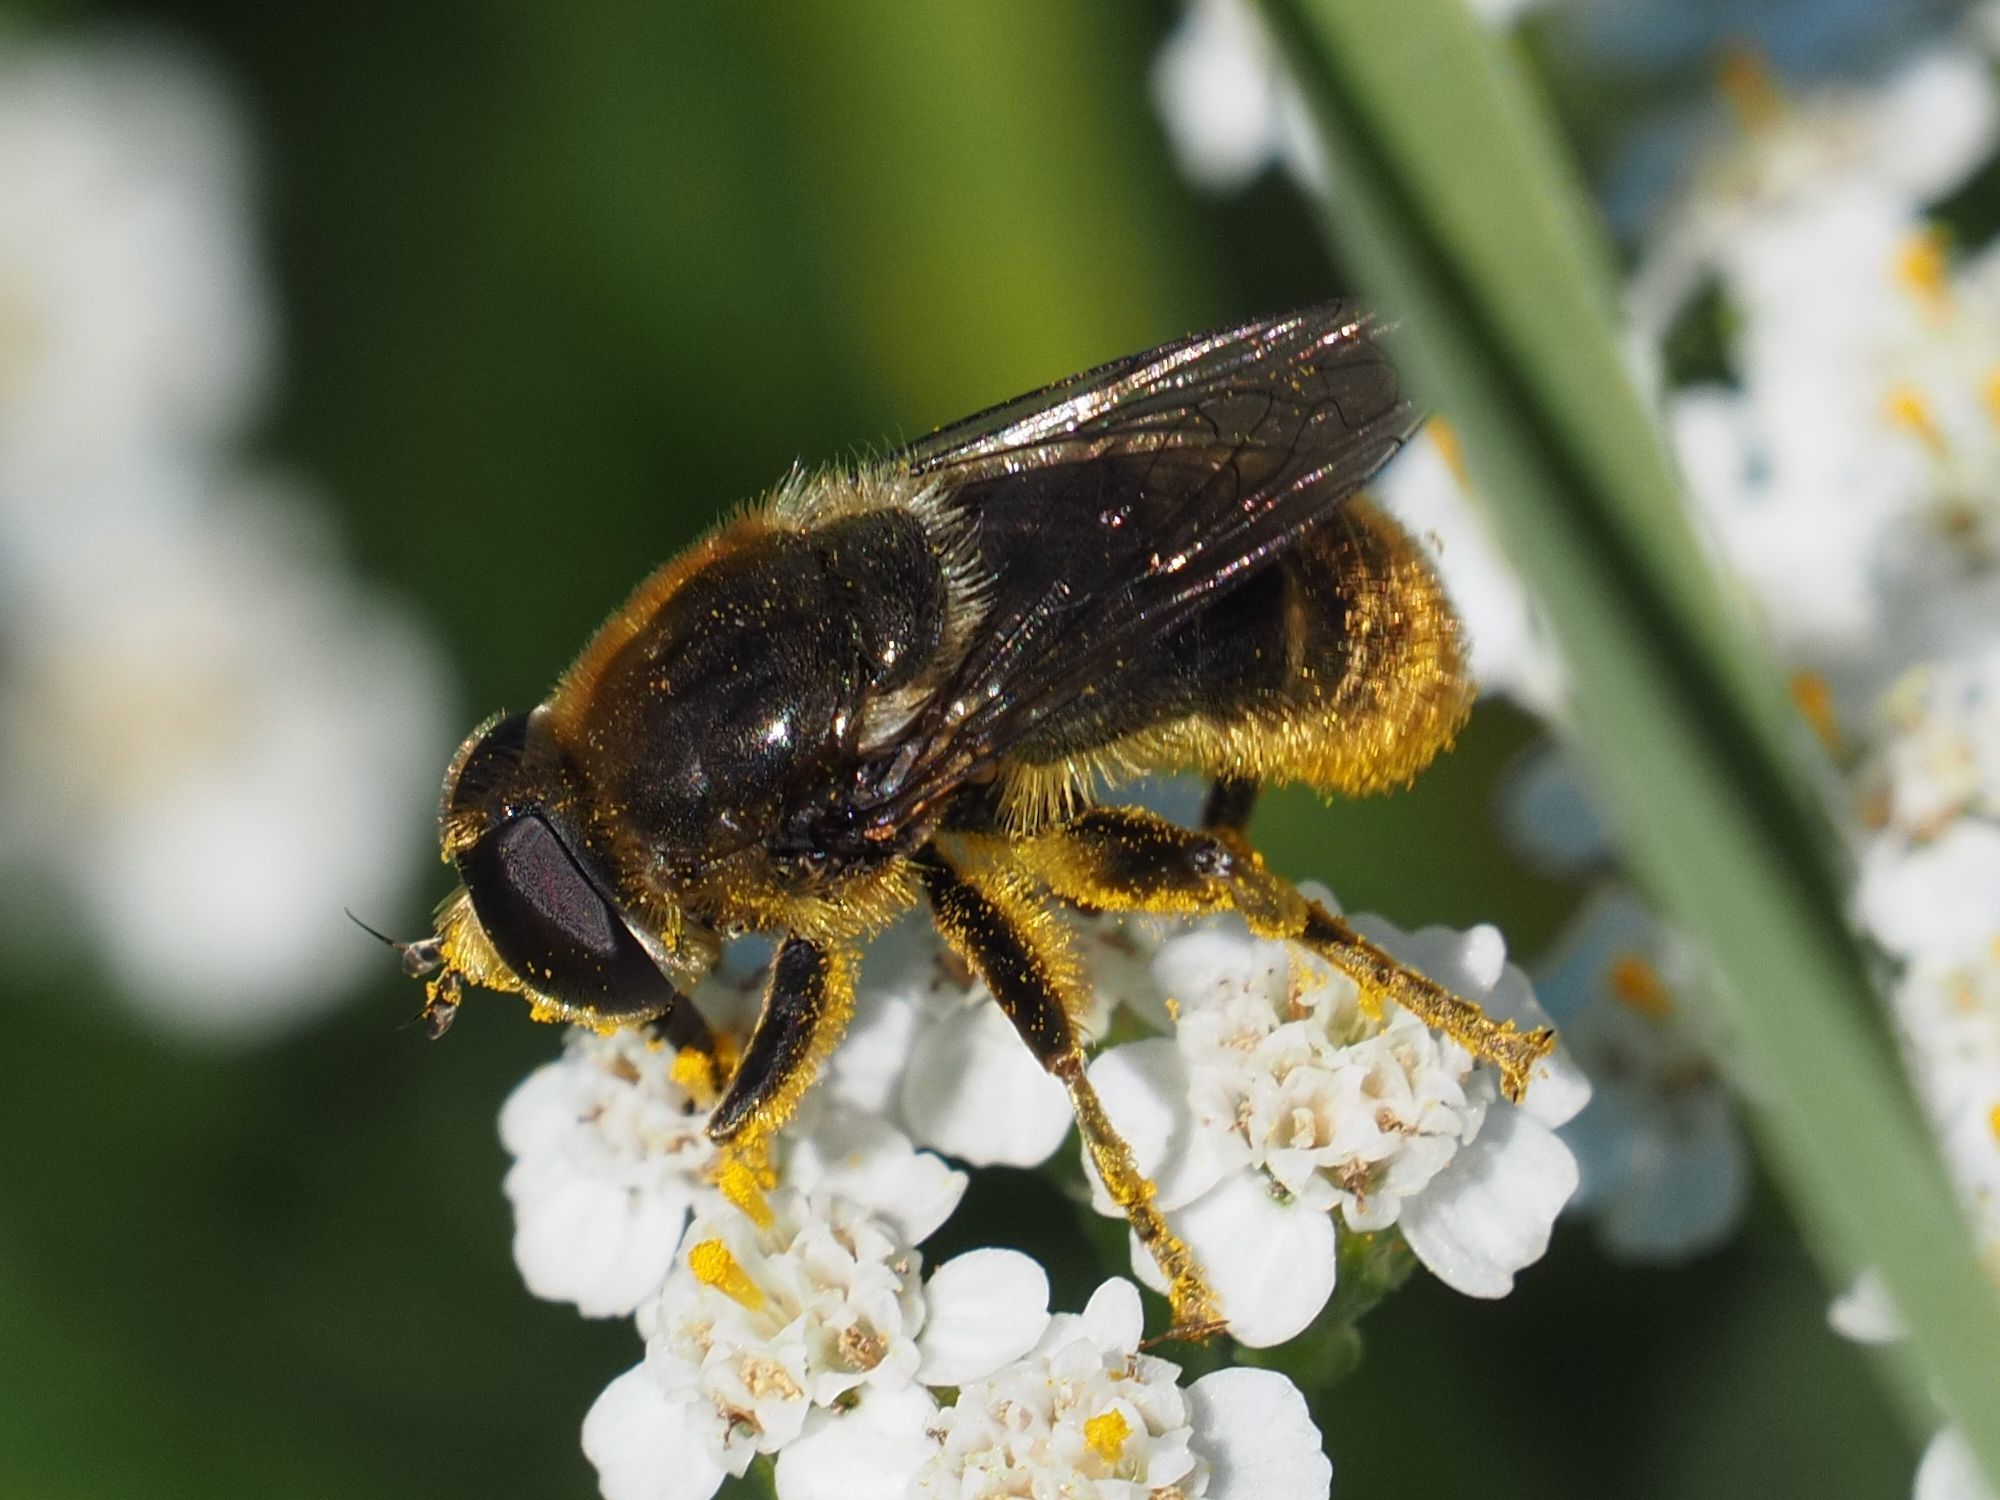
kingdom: Animalia
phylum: Arthropoda
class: Insecta
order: Diptera
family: Syrphidae
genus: Merodon
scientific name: Merodon constans
